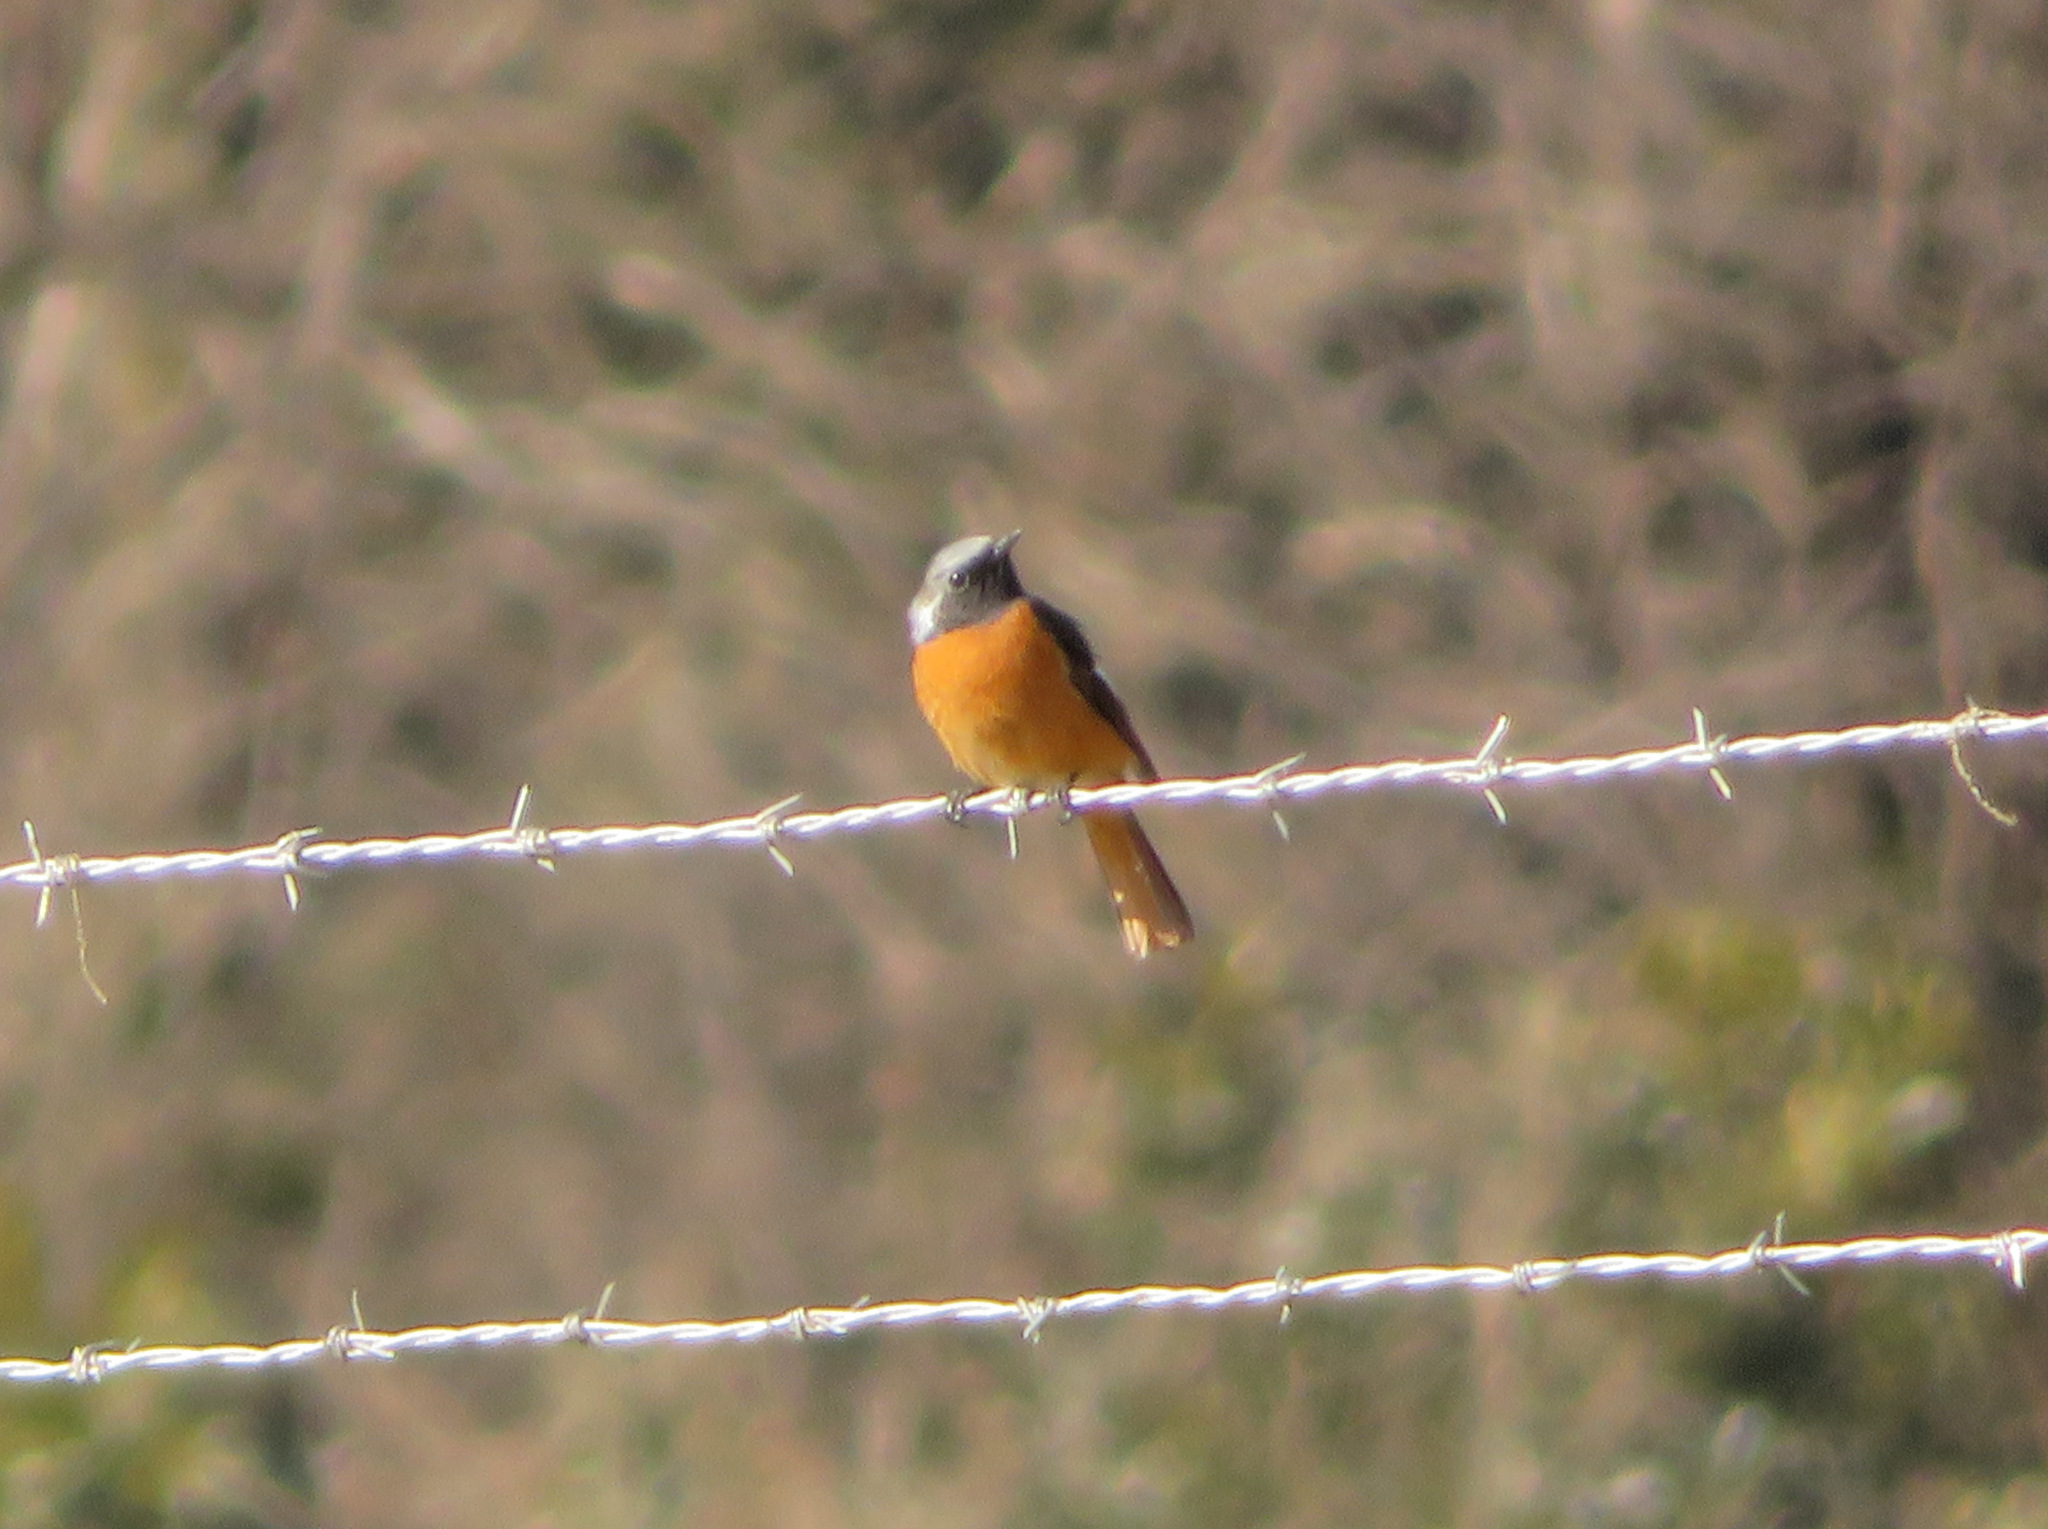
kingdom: Animalia
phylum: Chordata
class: Aves
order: Passeriformes
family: Muscicapidae
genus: Phoenicurus
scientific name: Phoenicurus auroreus
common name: Daurian redstart
